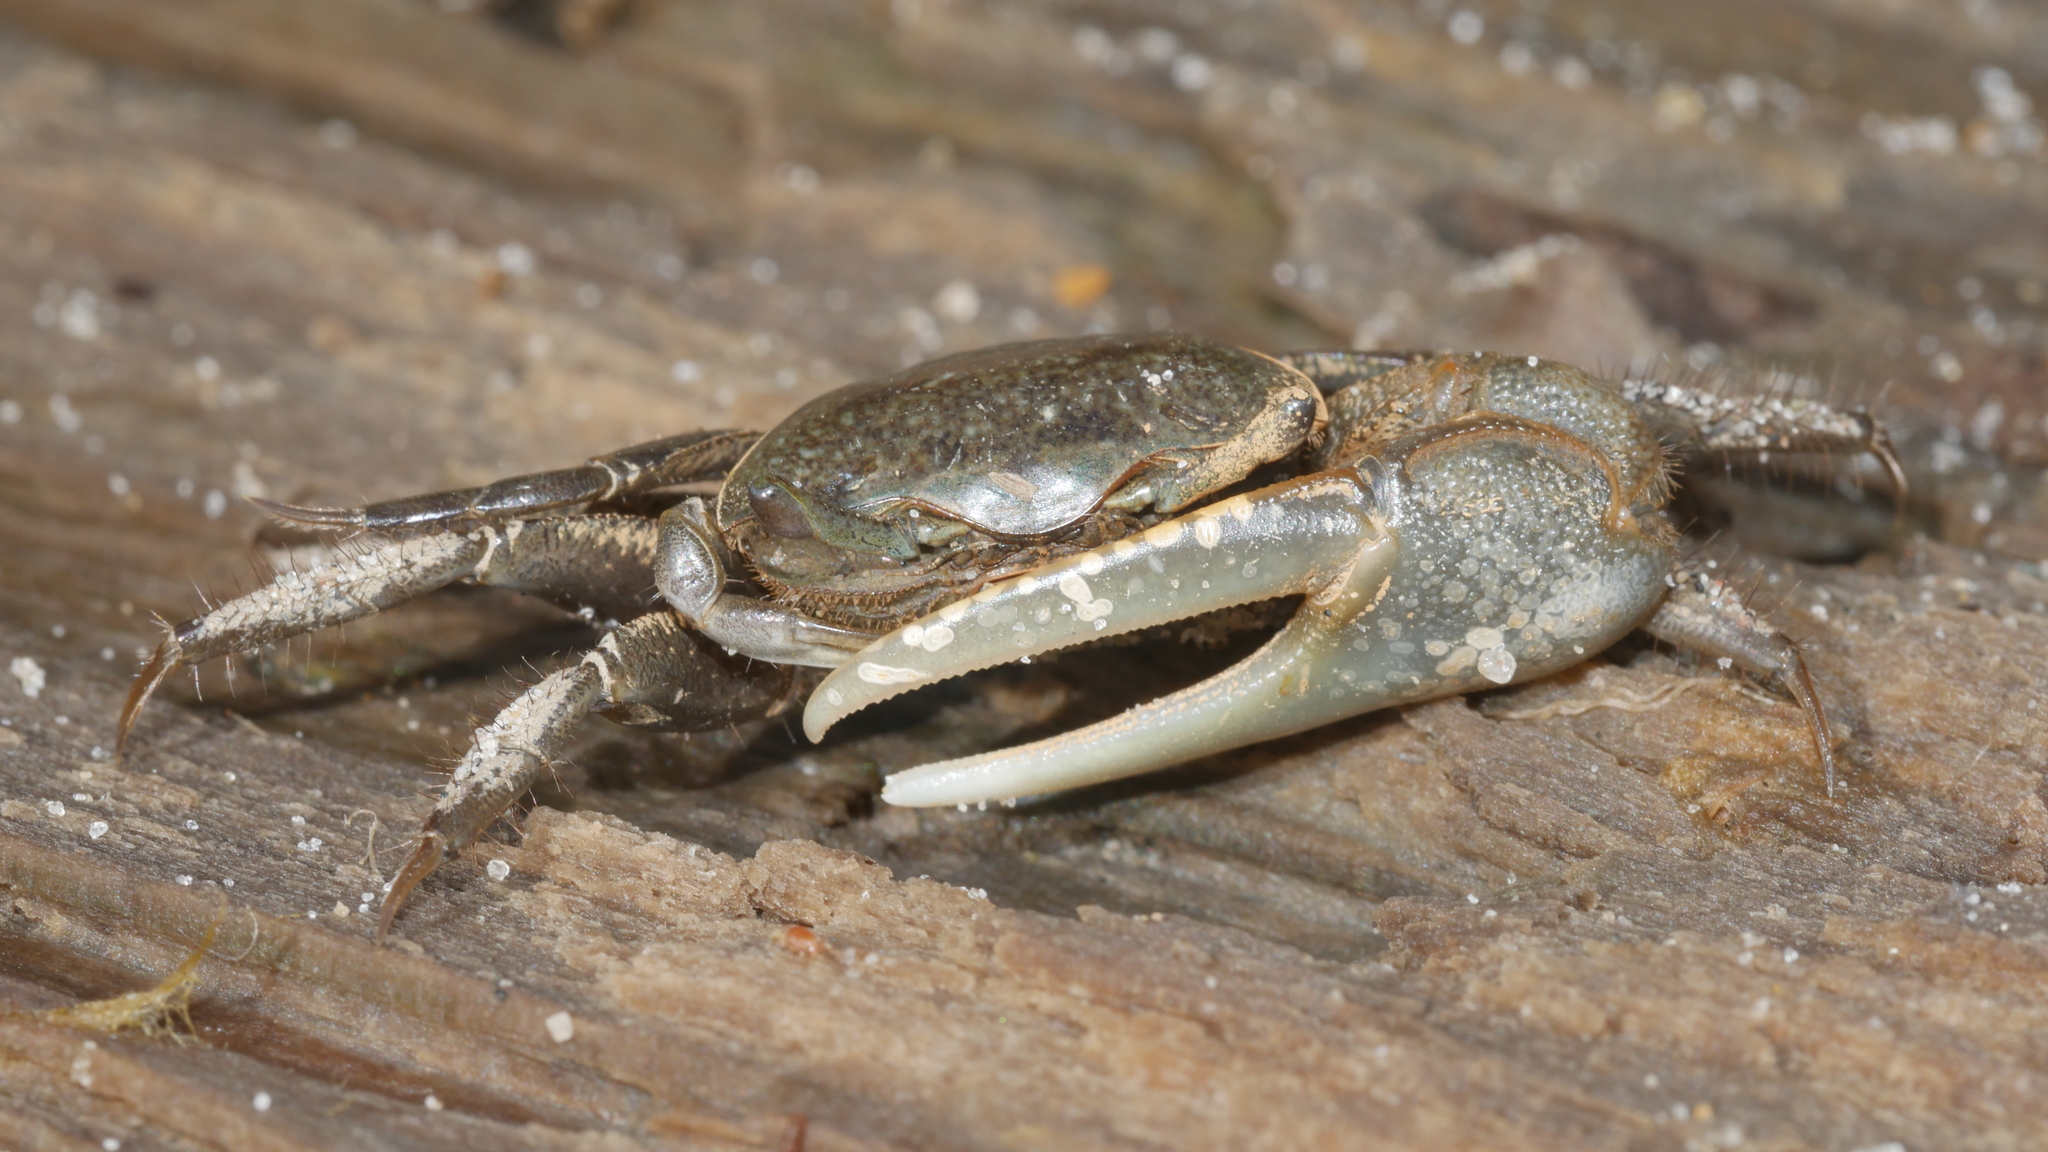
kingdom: Animalia
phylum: Arthropoda
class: Malacostraca
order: Decapoda
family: Ocypodidae
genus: Minuca
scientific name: Minuca pugnax
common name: Mud fiddler crab
